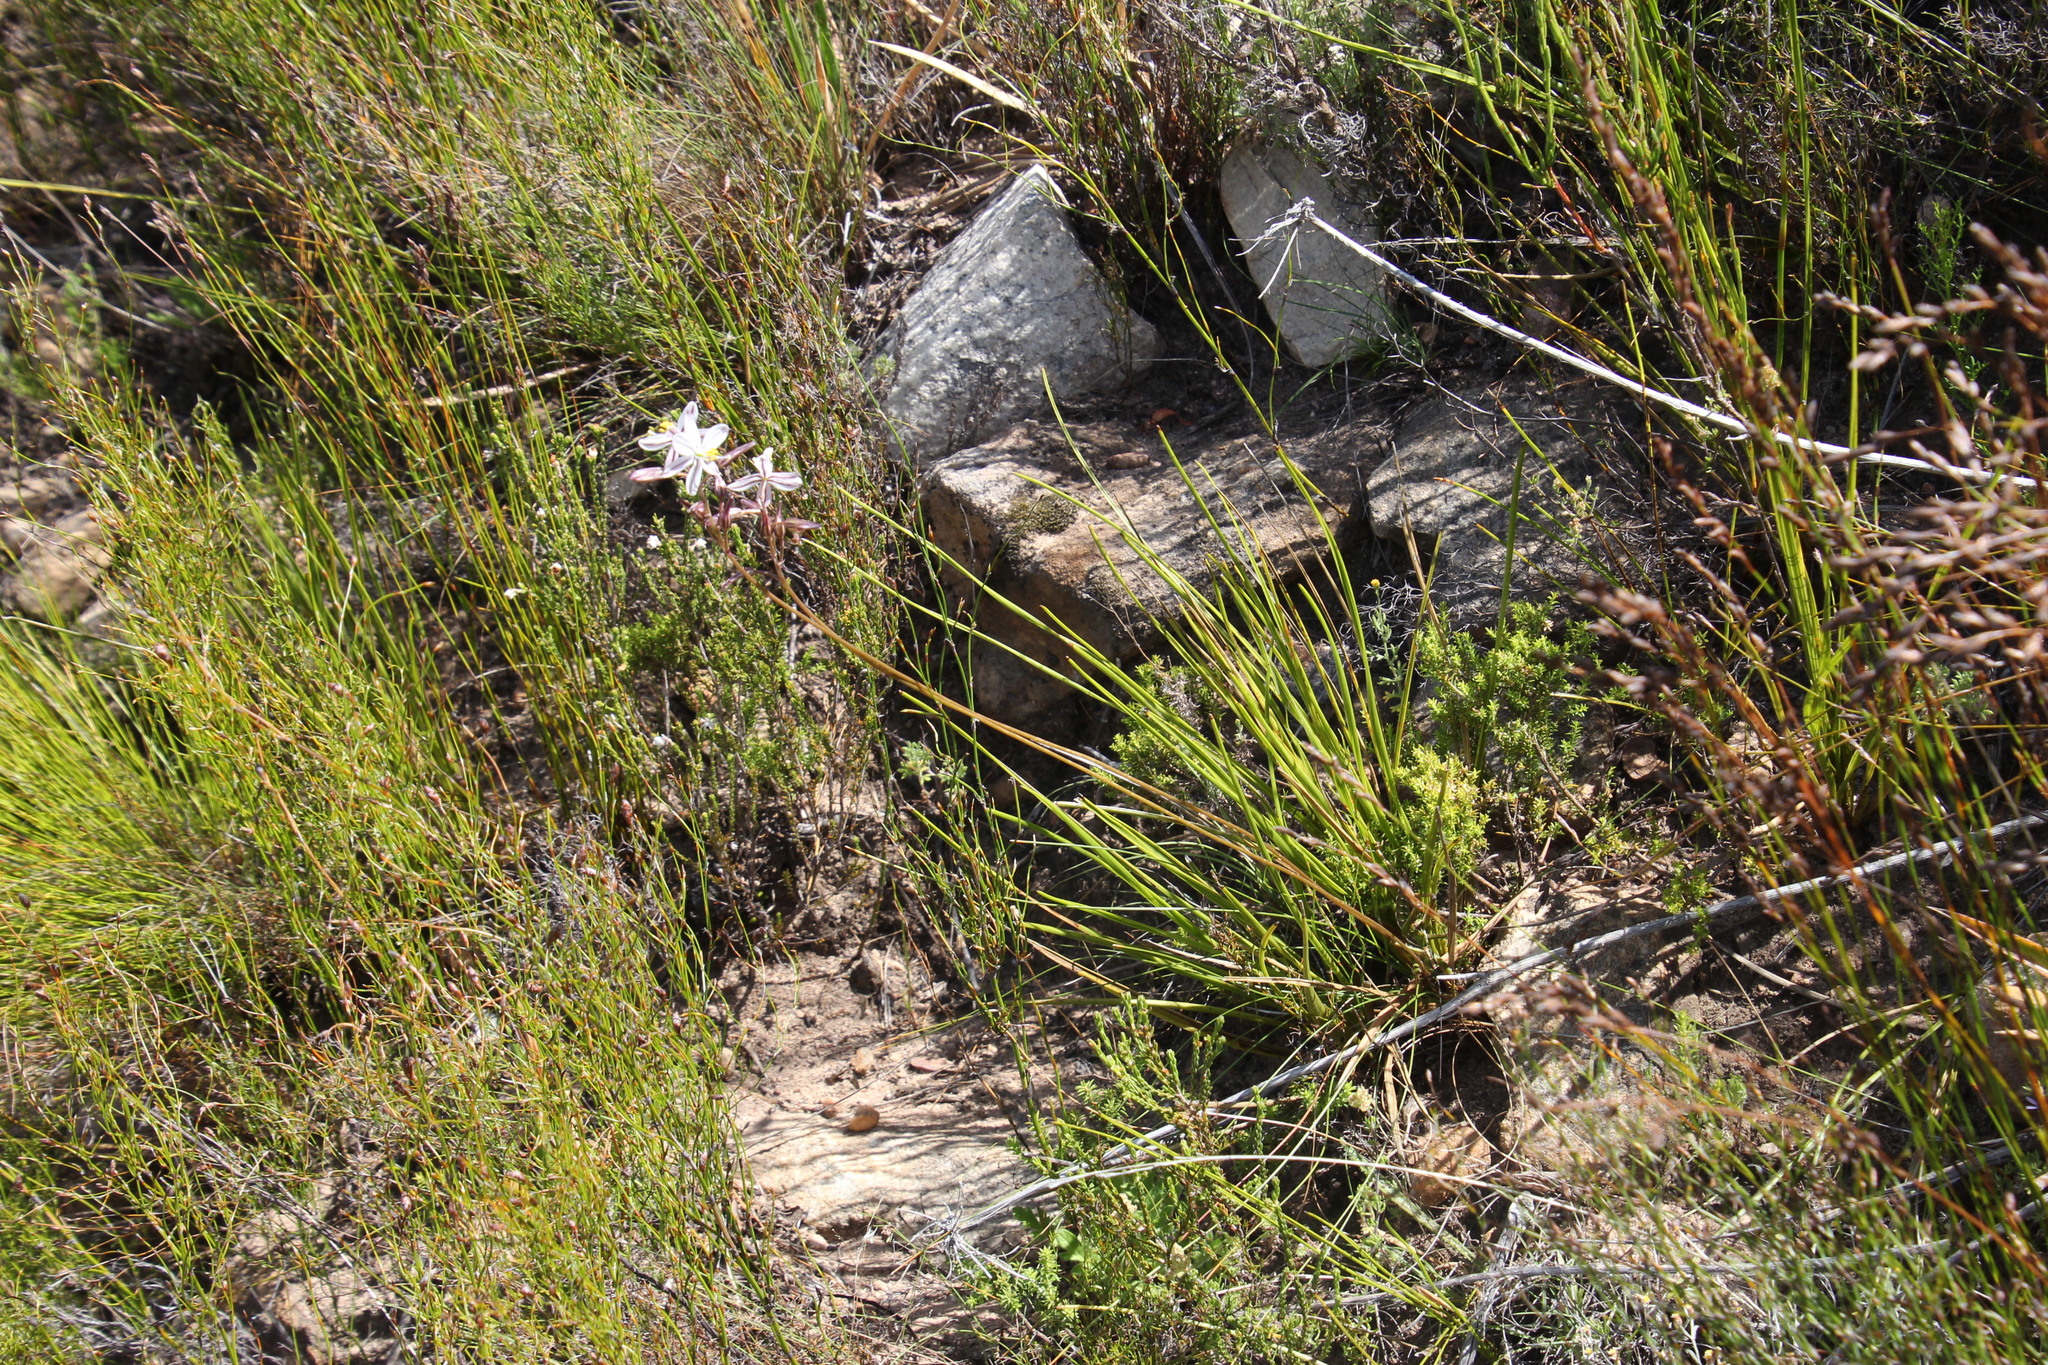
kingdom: Plantae
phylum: Tracheophyta
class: Liliopsida
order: Asparagales
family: Asparagaceae
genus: Drimia
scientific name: Drimia exuviata
